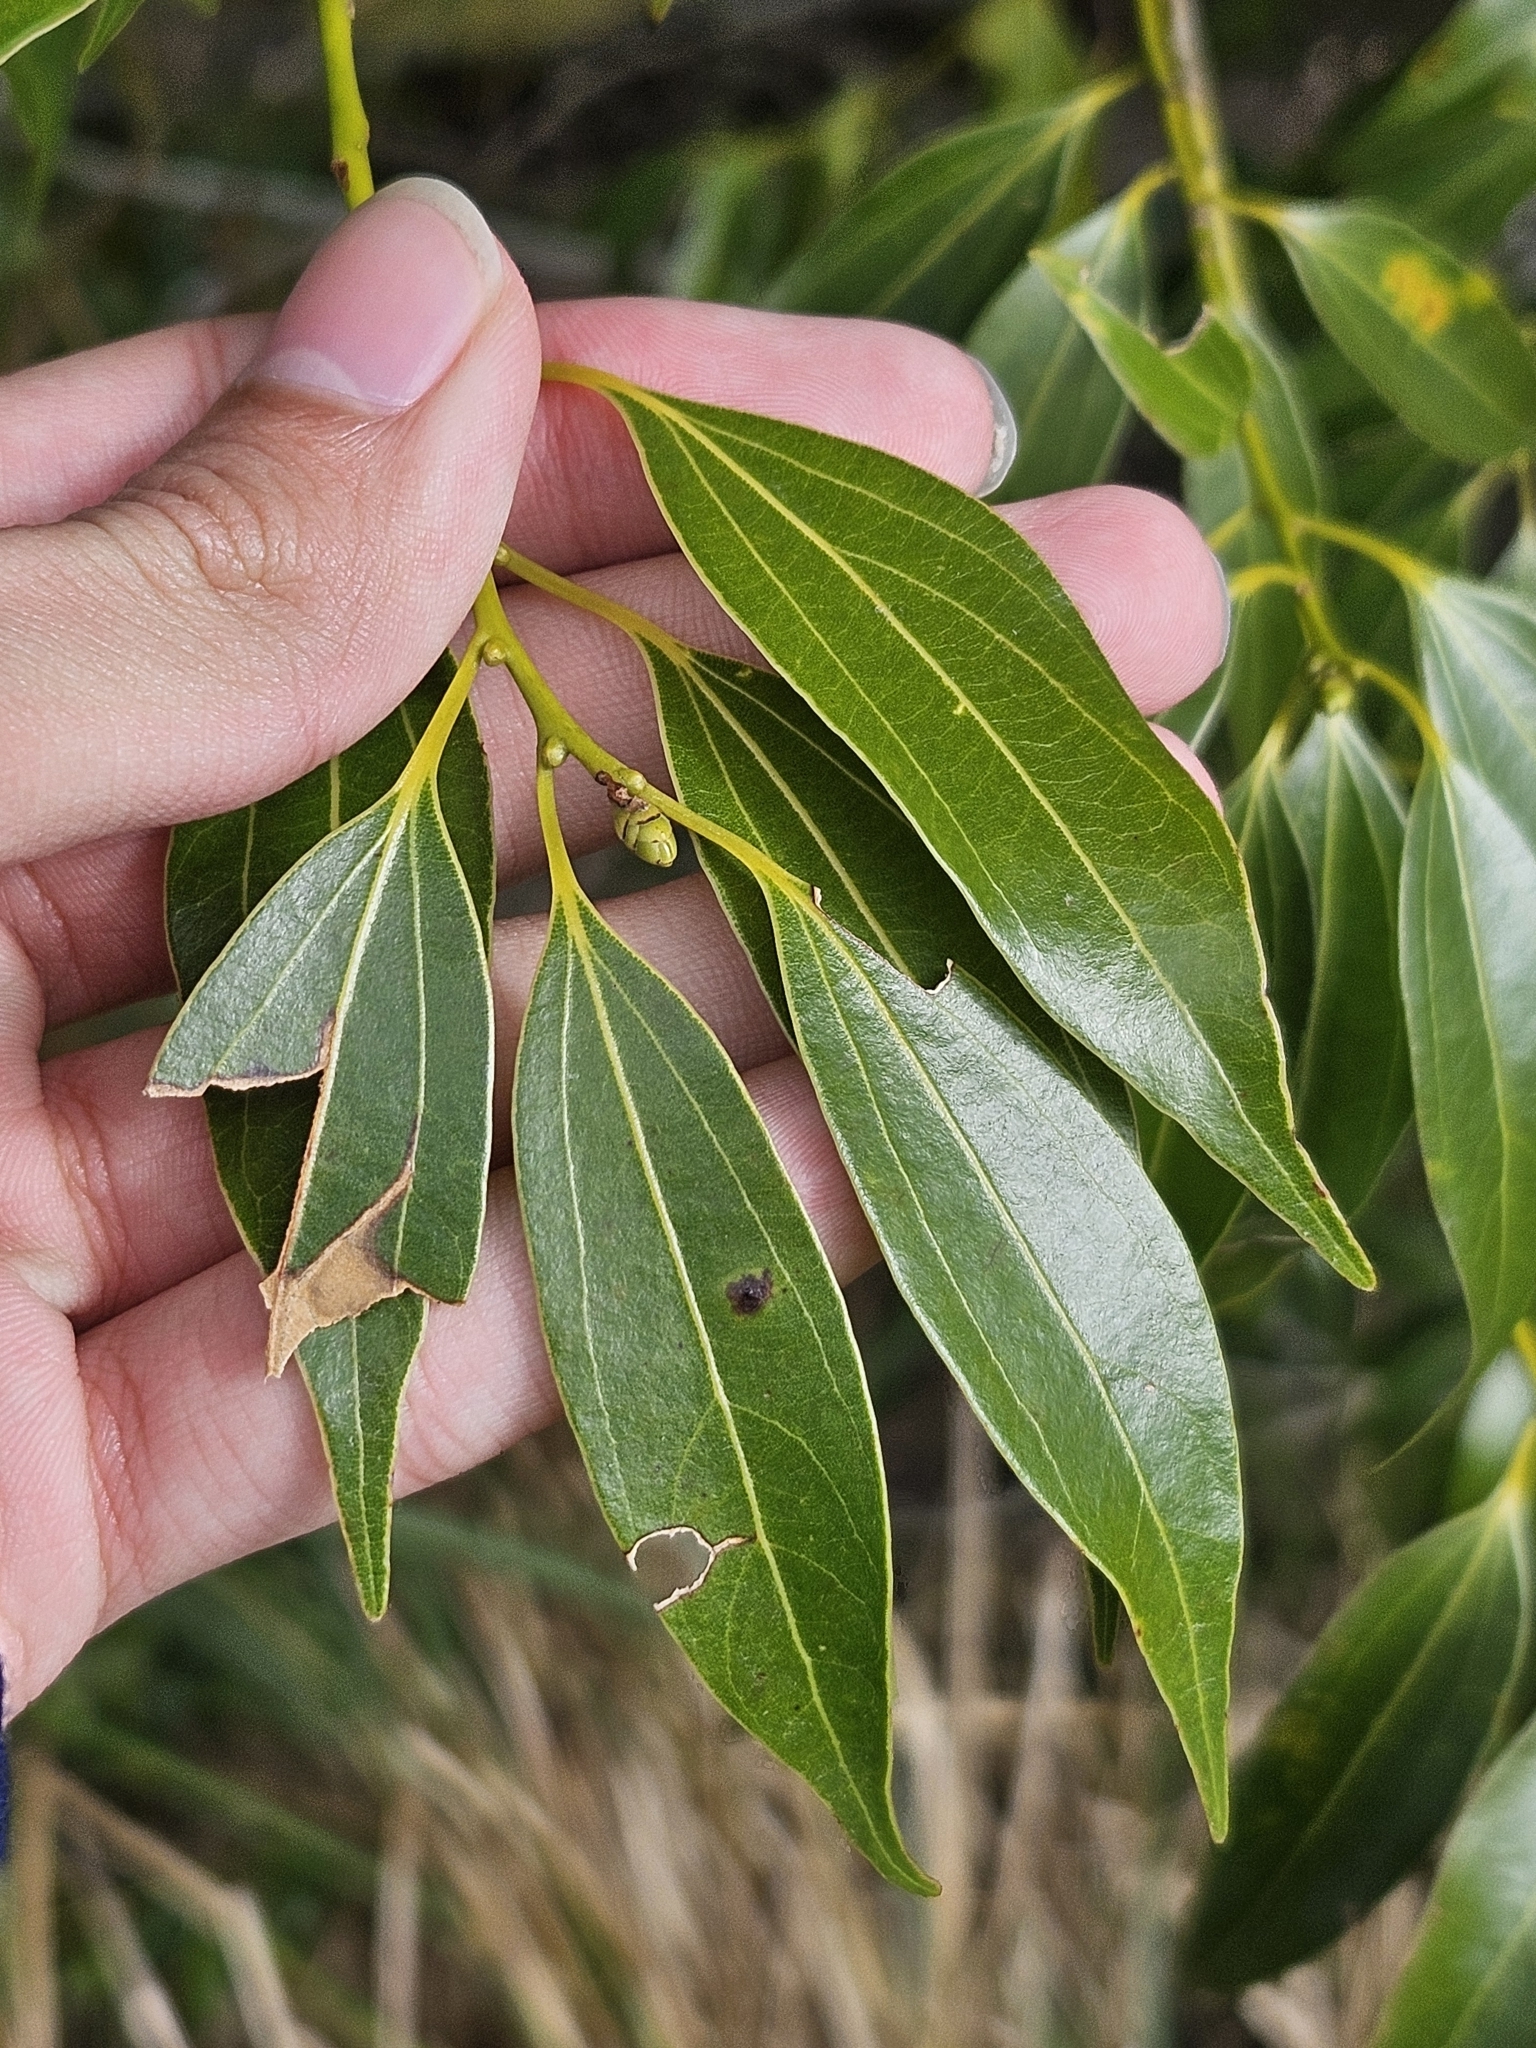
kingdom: Plantae
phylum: Tracheophyta
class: Magnoliopsida
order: Laurales
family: Lauraceae
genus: Cinnamomum
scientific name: Cinnamomum chekiangense
